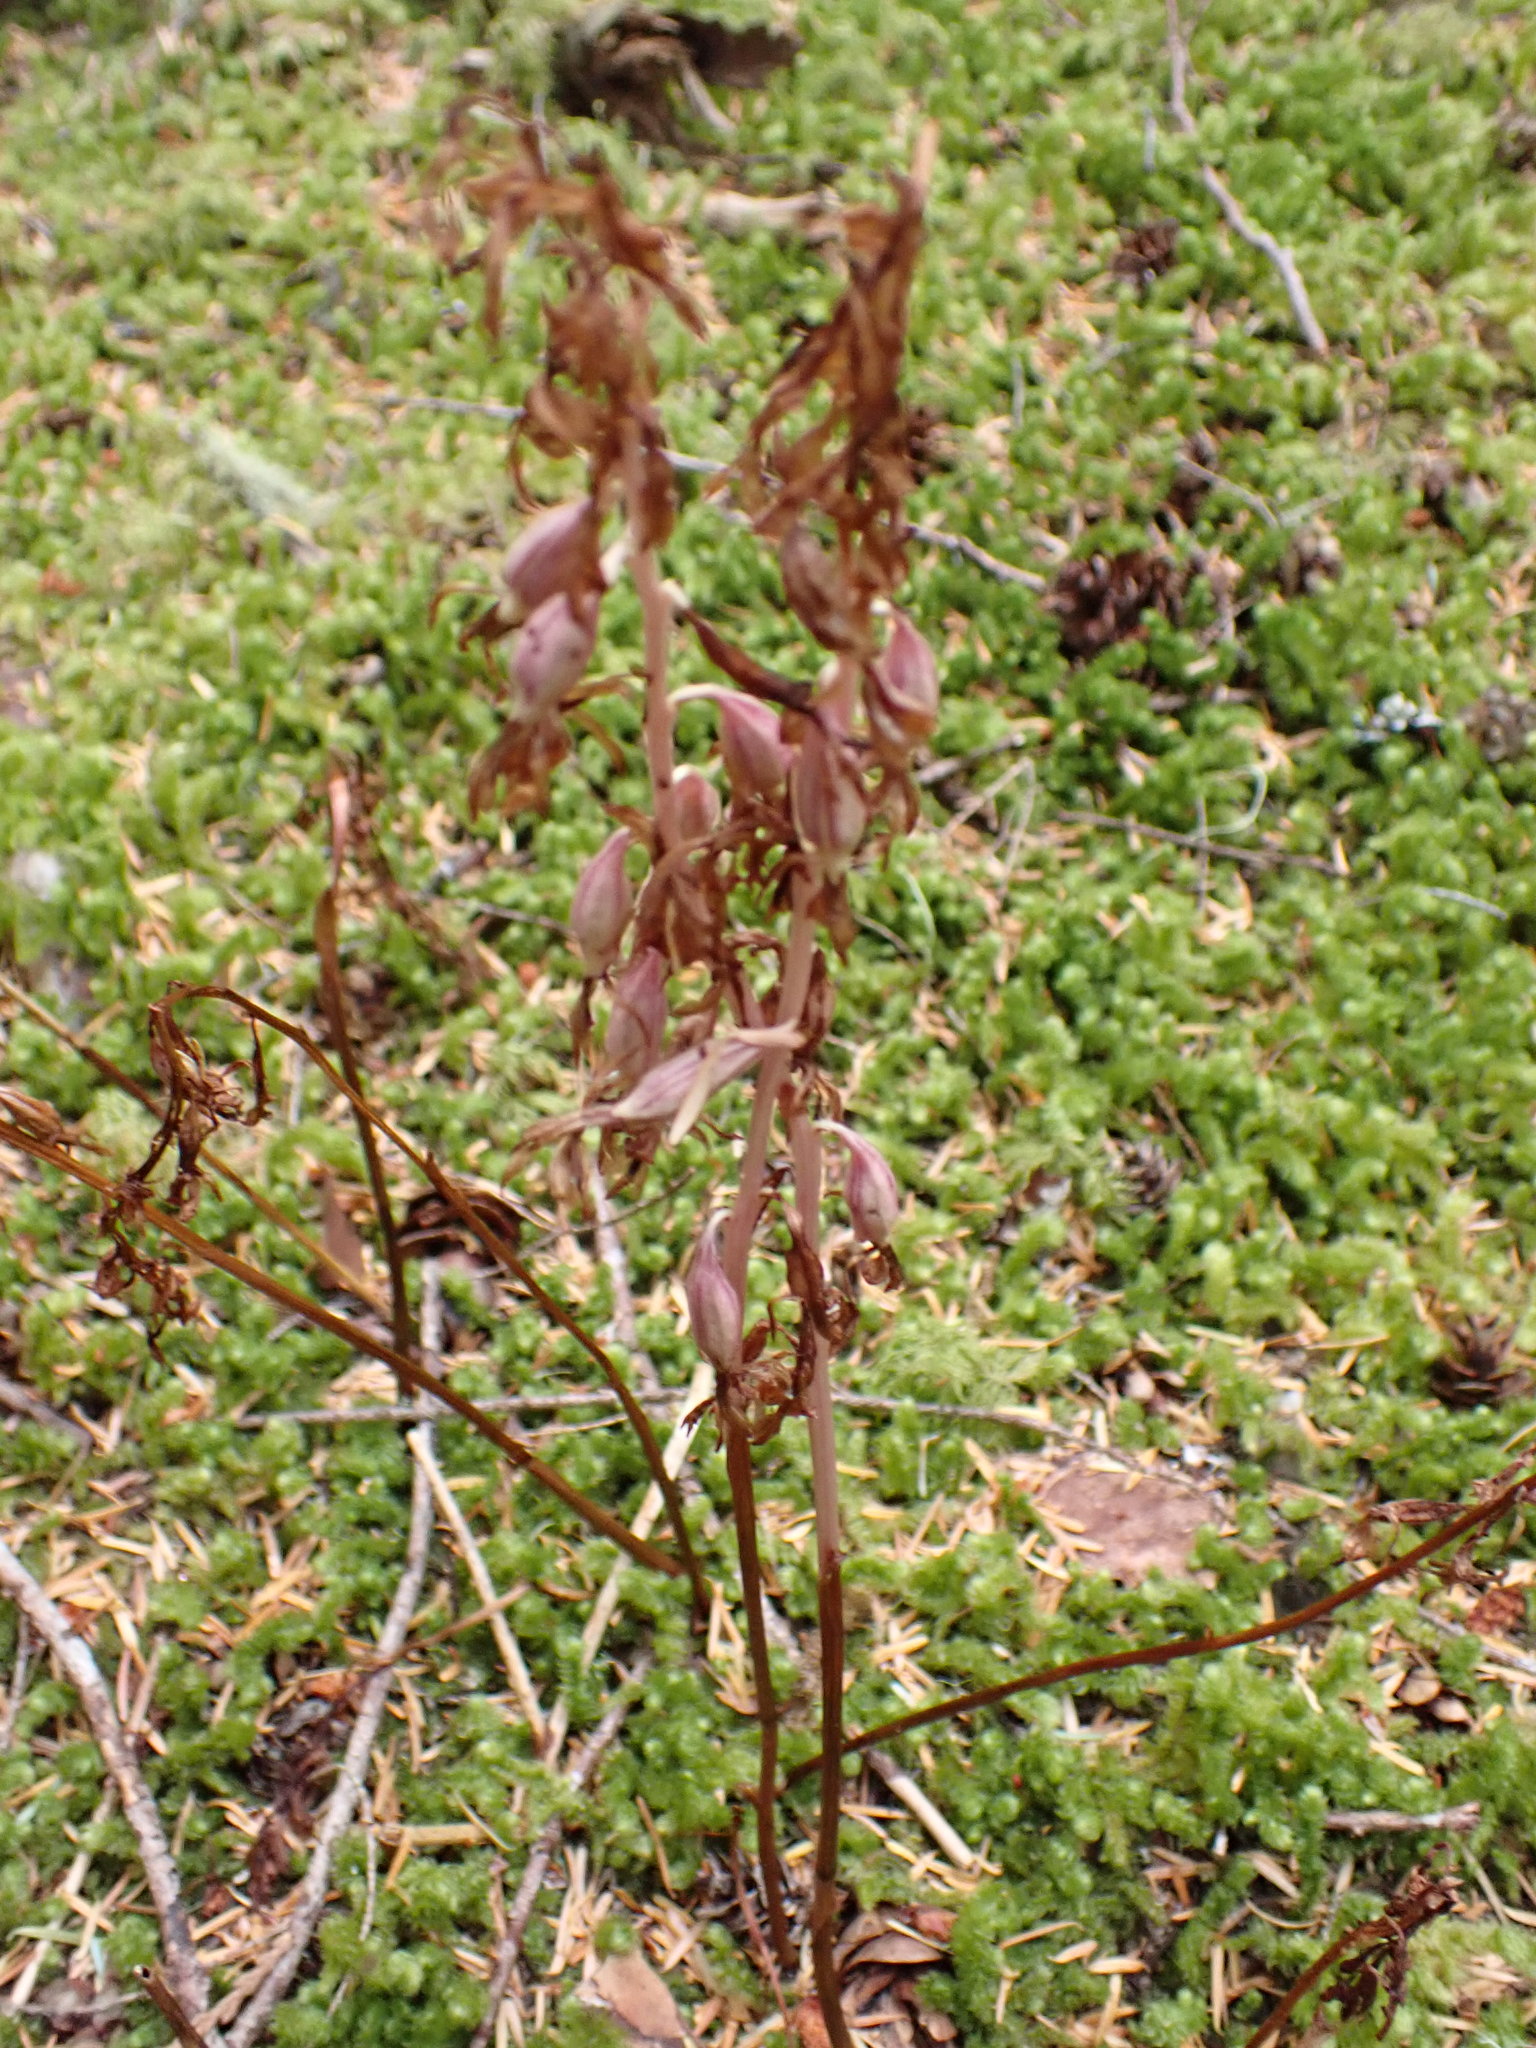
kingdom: Plantae
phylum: Tracheophyta
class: Liliopsida
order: Asparagales
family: Orchidaceae
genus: Corallorhiza
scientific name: Corallorhiza mertensiana
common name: Pacific coralroot
